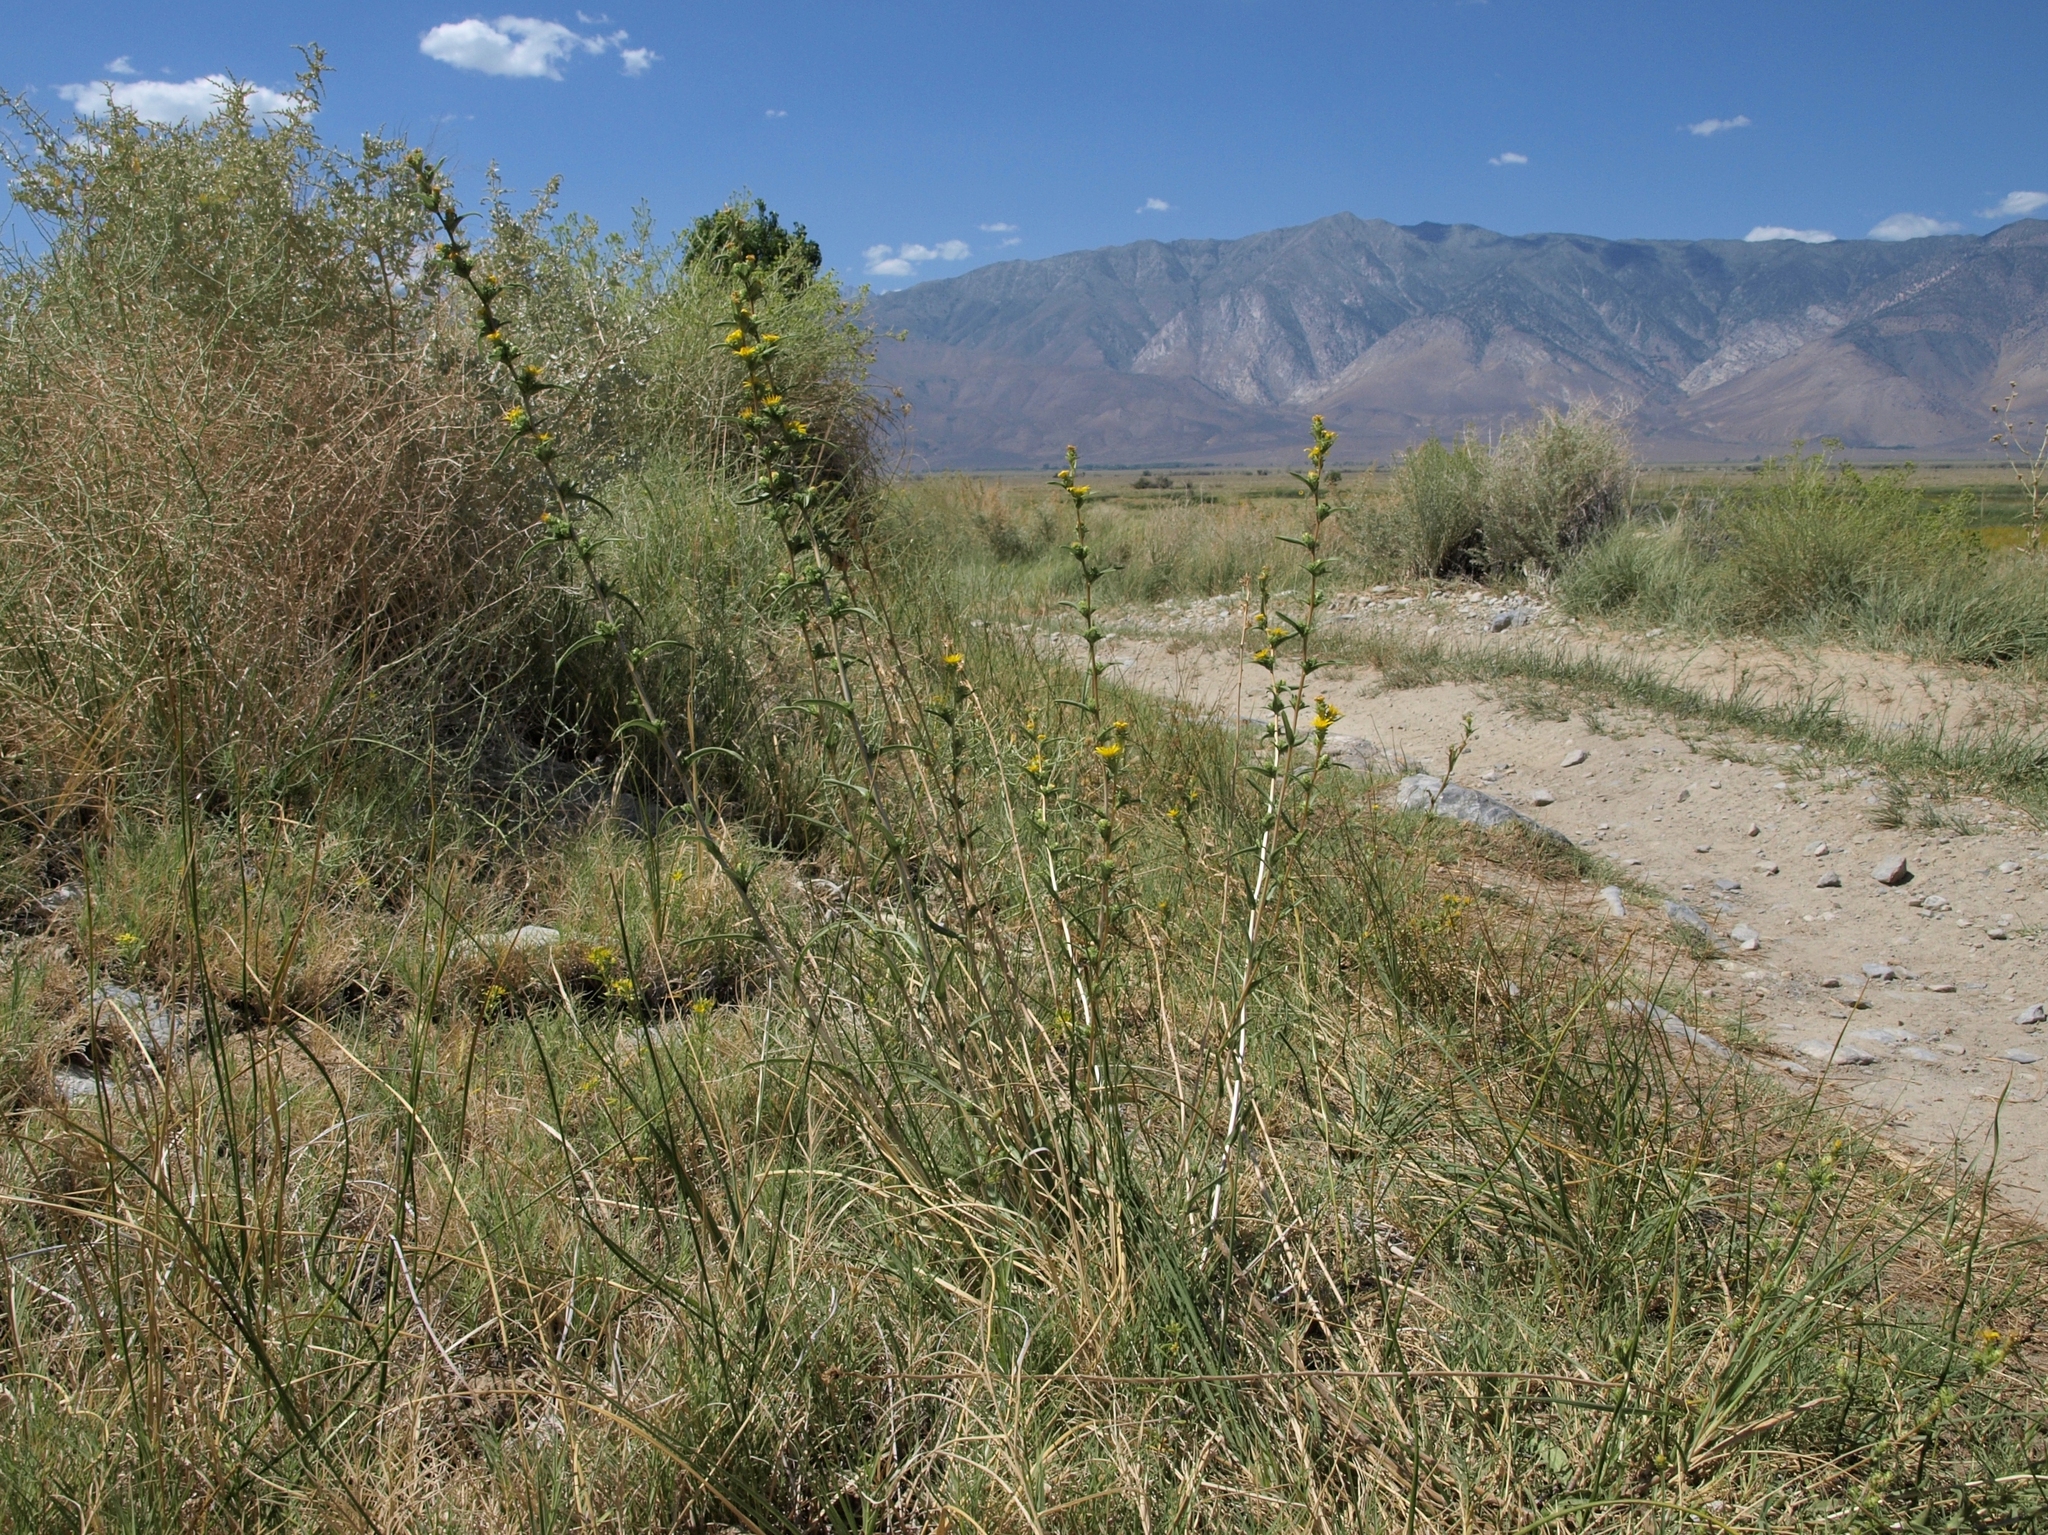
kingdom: Plantae
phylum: Tracheophyta
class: Magnoliopsida
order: Asterales
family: Asteraceae
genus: Pyrrocoma
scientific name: Pyrrocoma racemosa
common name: Clustered goldenweed
